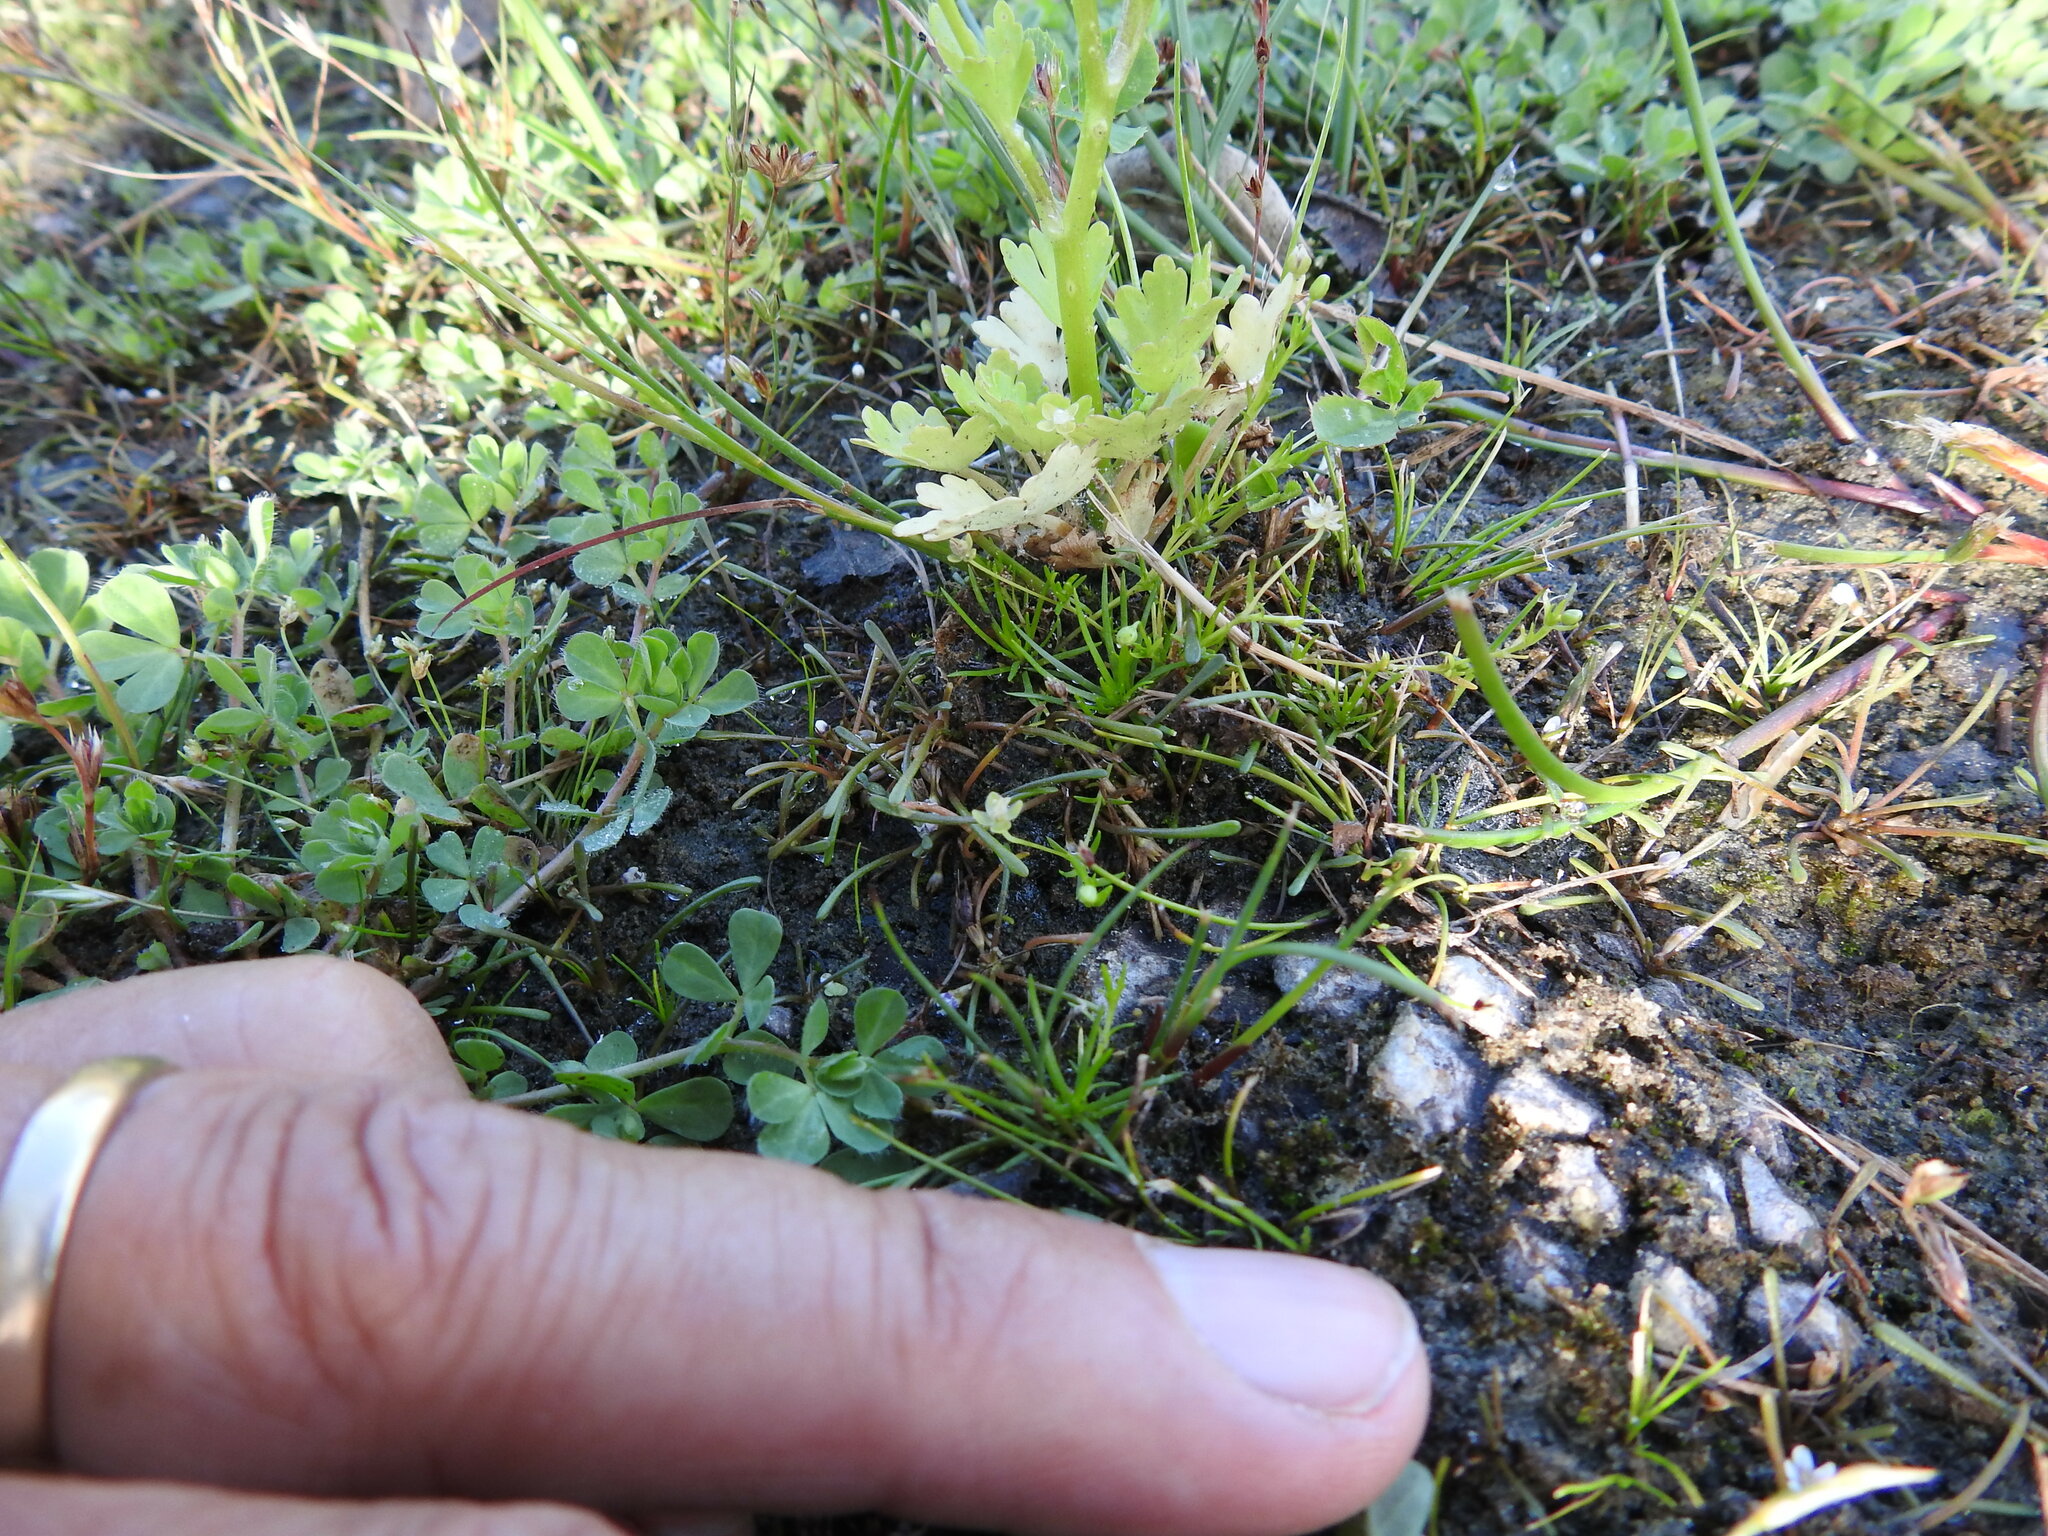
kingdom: Plantae
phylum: Tracheophyta
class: Magnoliopsida
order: Ranunculales
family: Ranunculaceae
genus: Ranunculus
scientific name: Ranunculus sceleratus
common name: Celery-leaved buttercup
